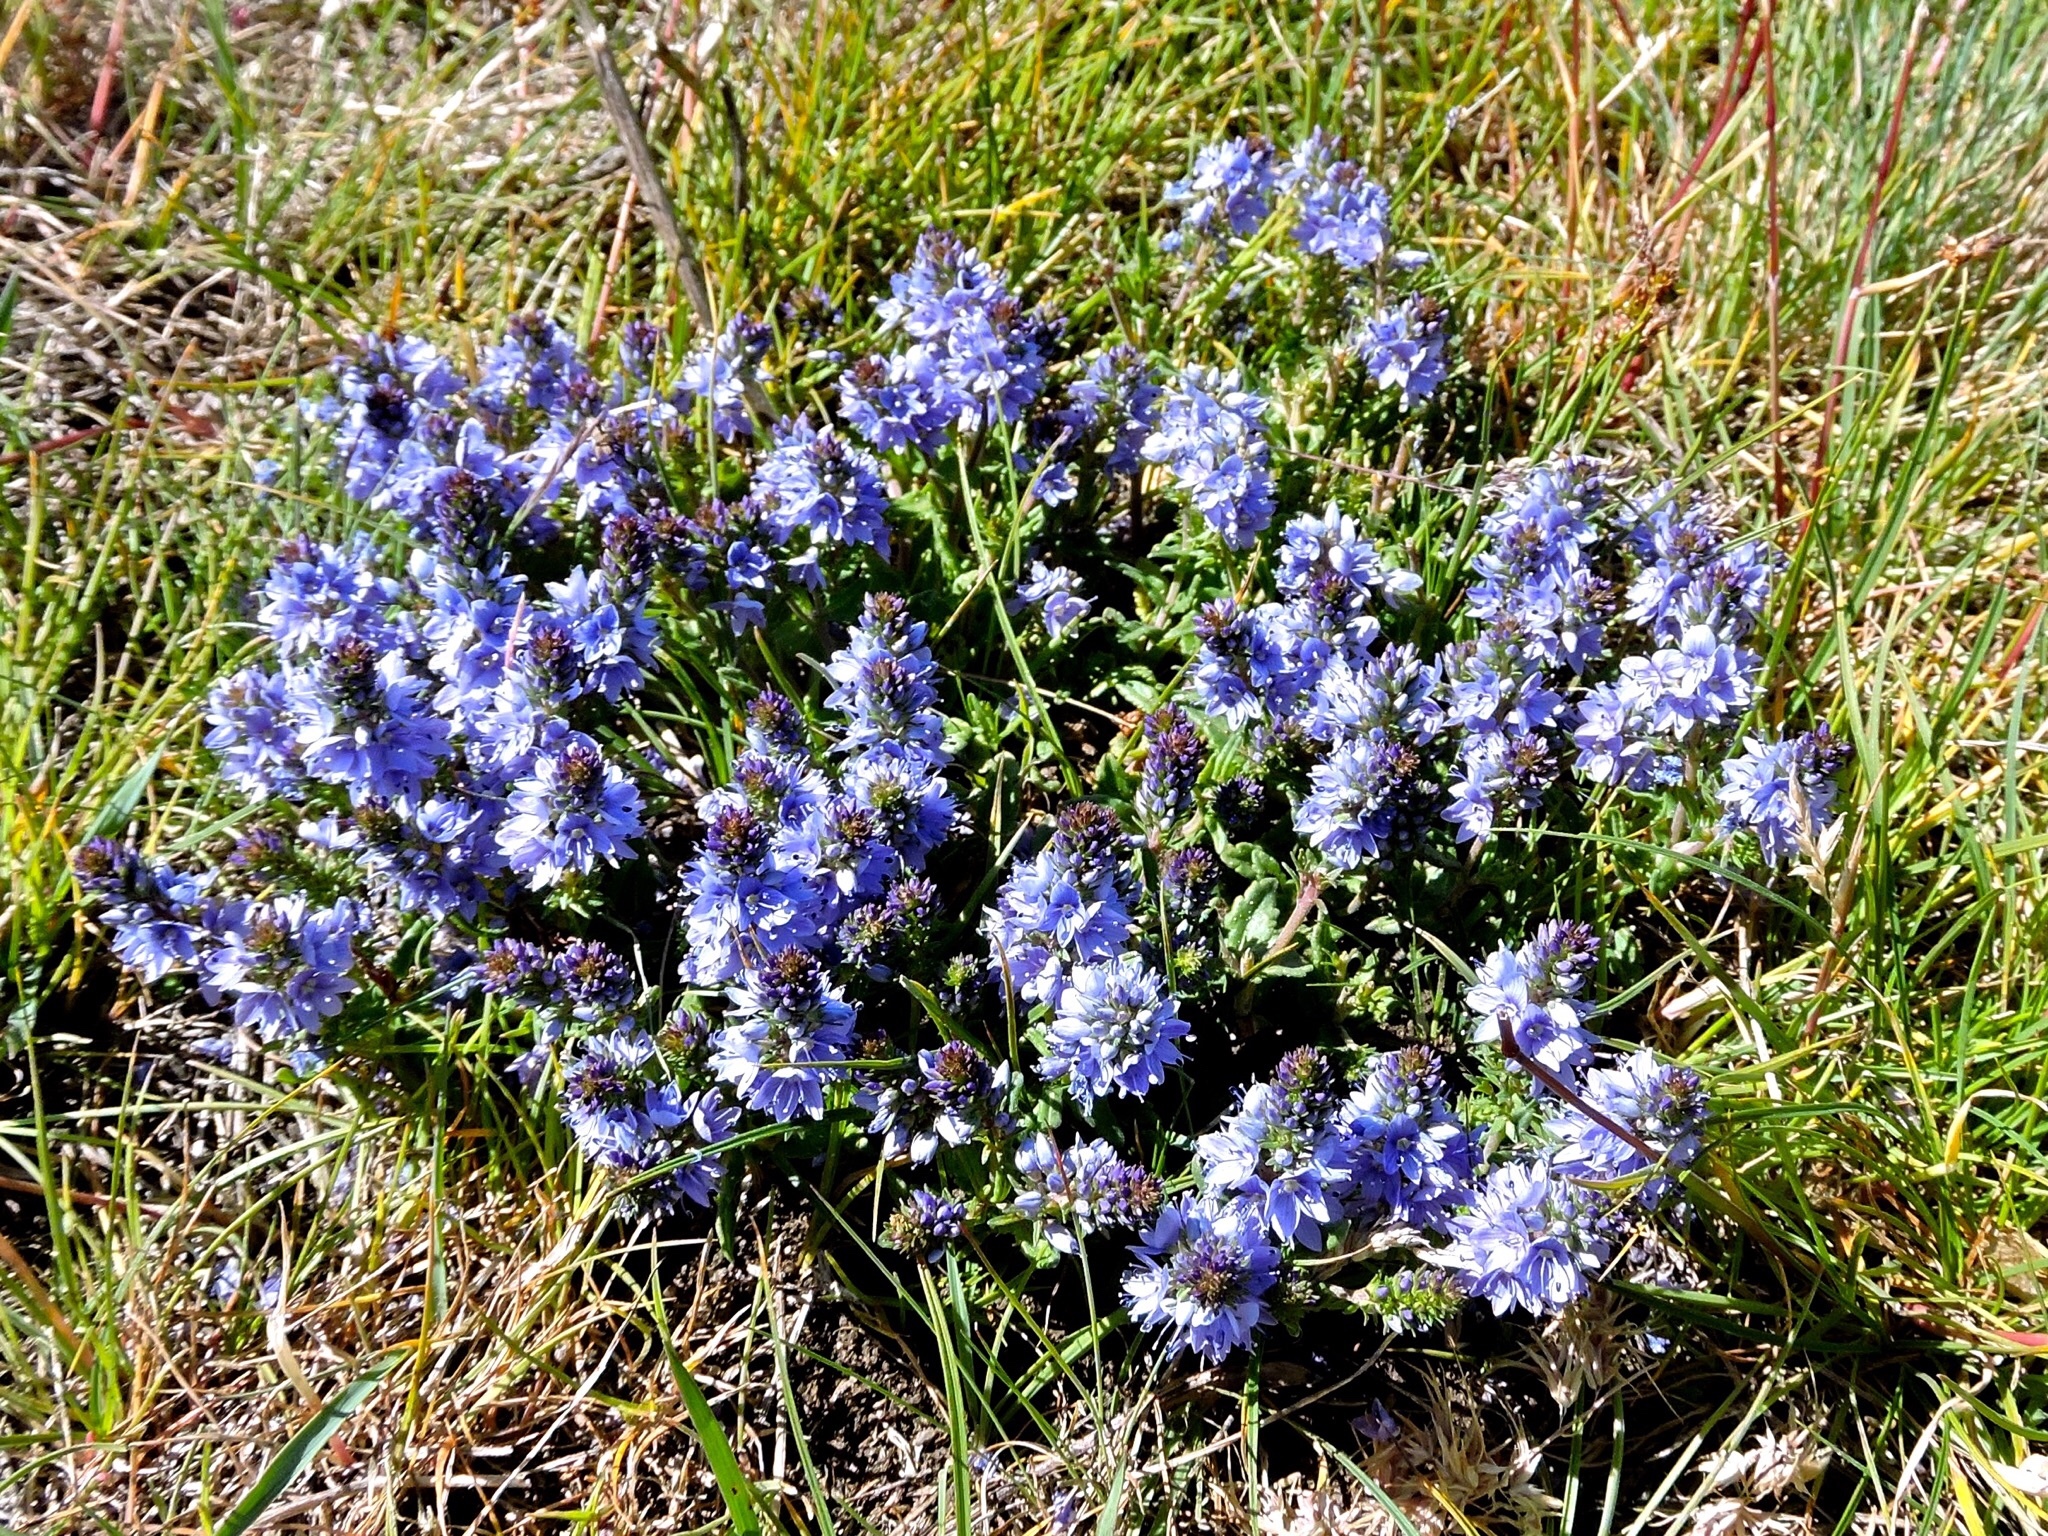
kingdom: Plantae
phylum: Tracheophyta
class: Magnoliopsida
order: Lamiales
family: Plantaginaceae
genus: Veronica
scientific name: Veronica prostrata
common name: Prostrate speedwell
